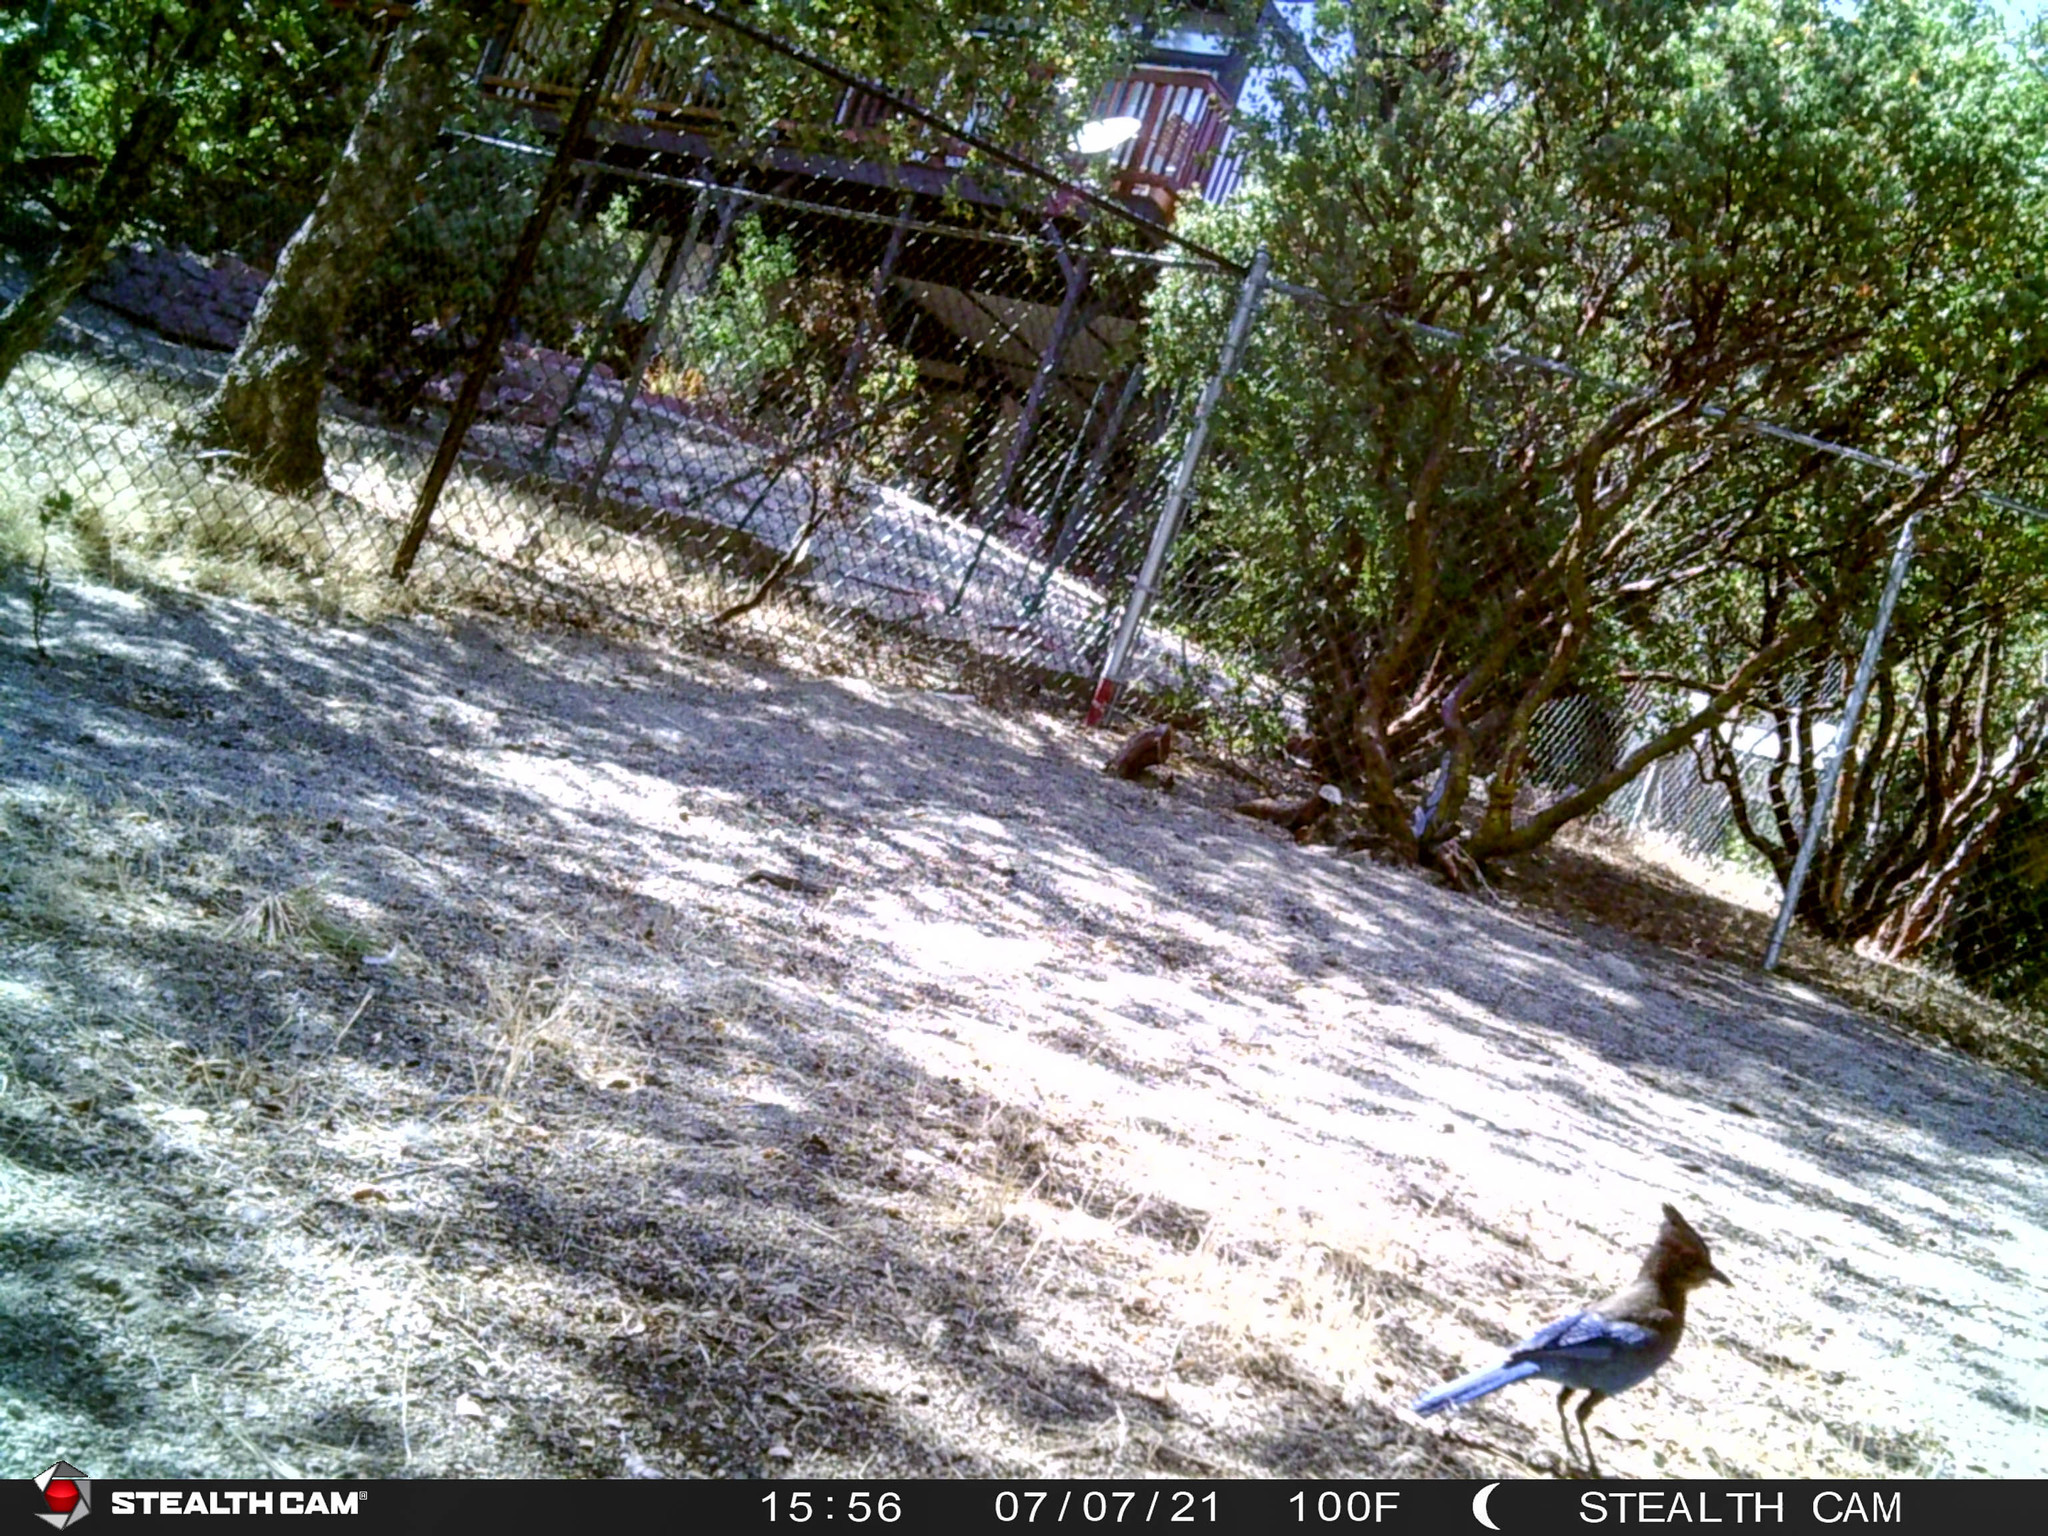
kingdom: Animalia
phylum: Chordata
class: Aves
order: Passeriformes
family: Corvidae
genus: Cyanocitta
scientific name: Cyanocitta stelleri
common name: Steller's jay
